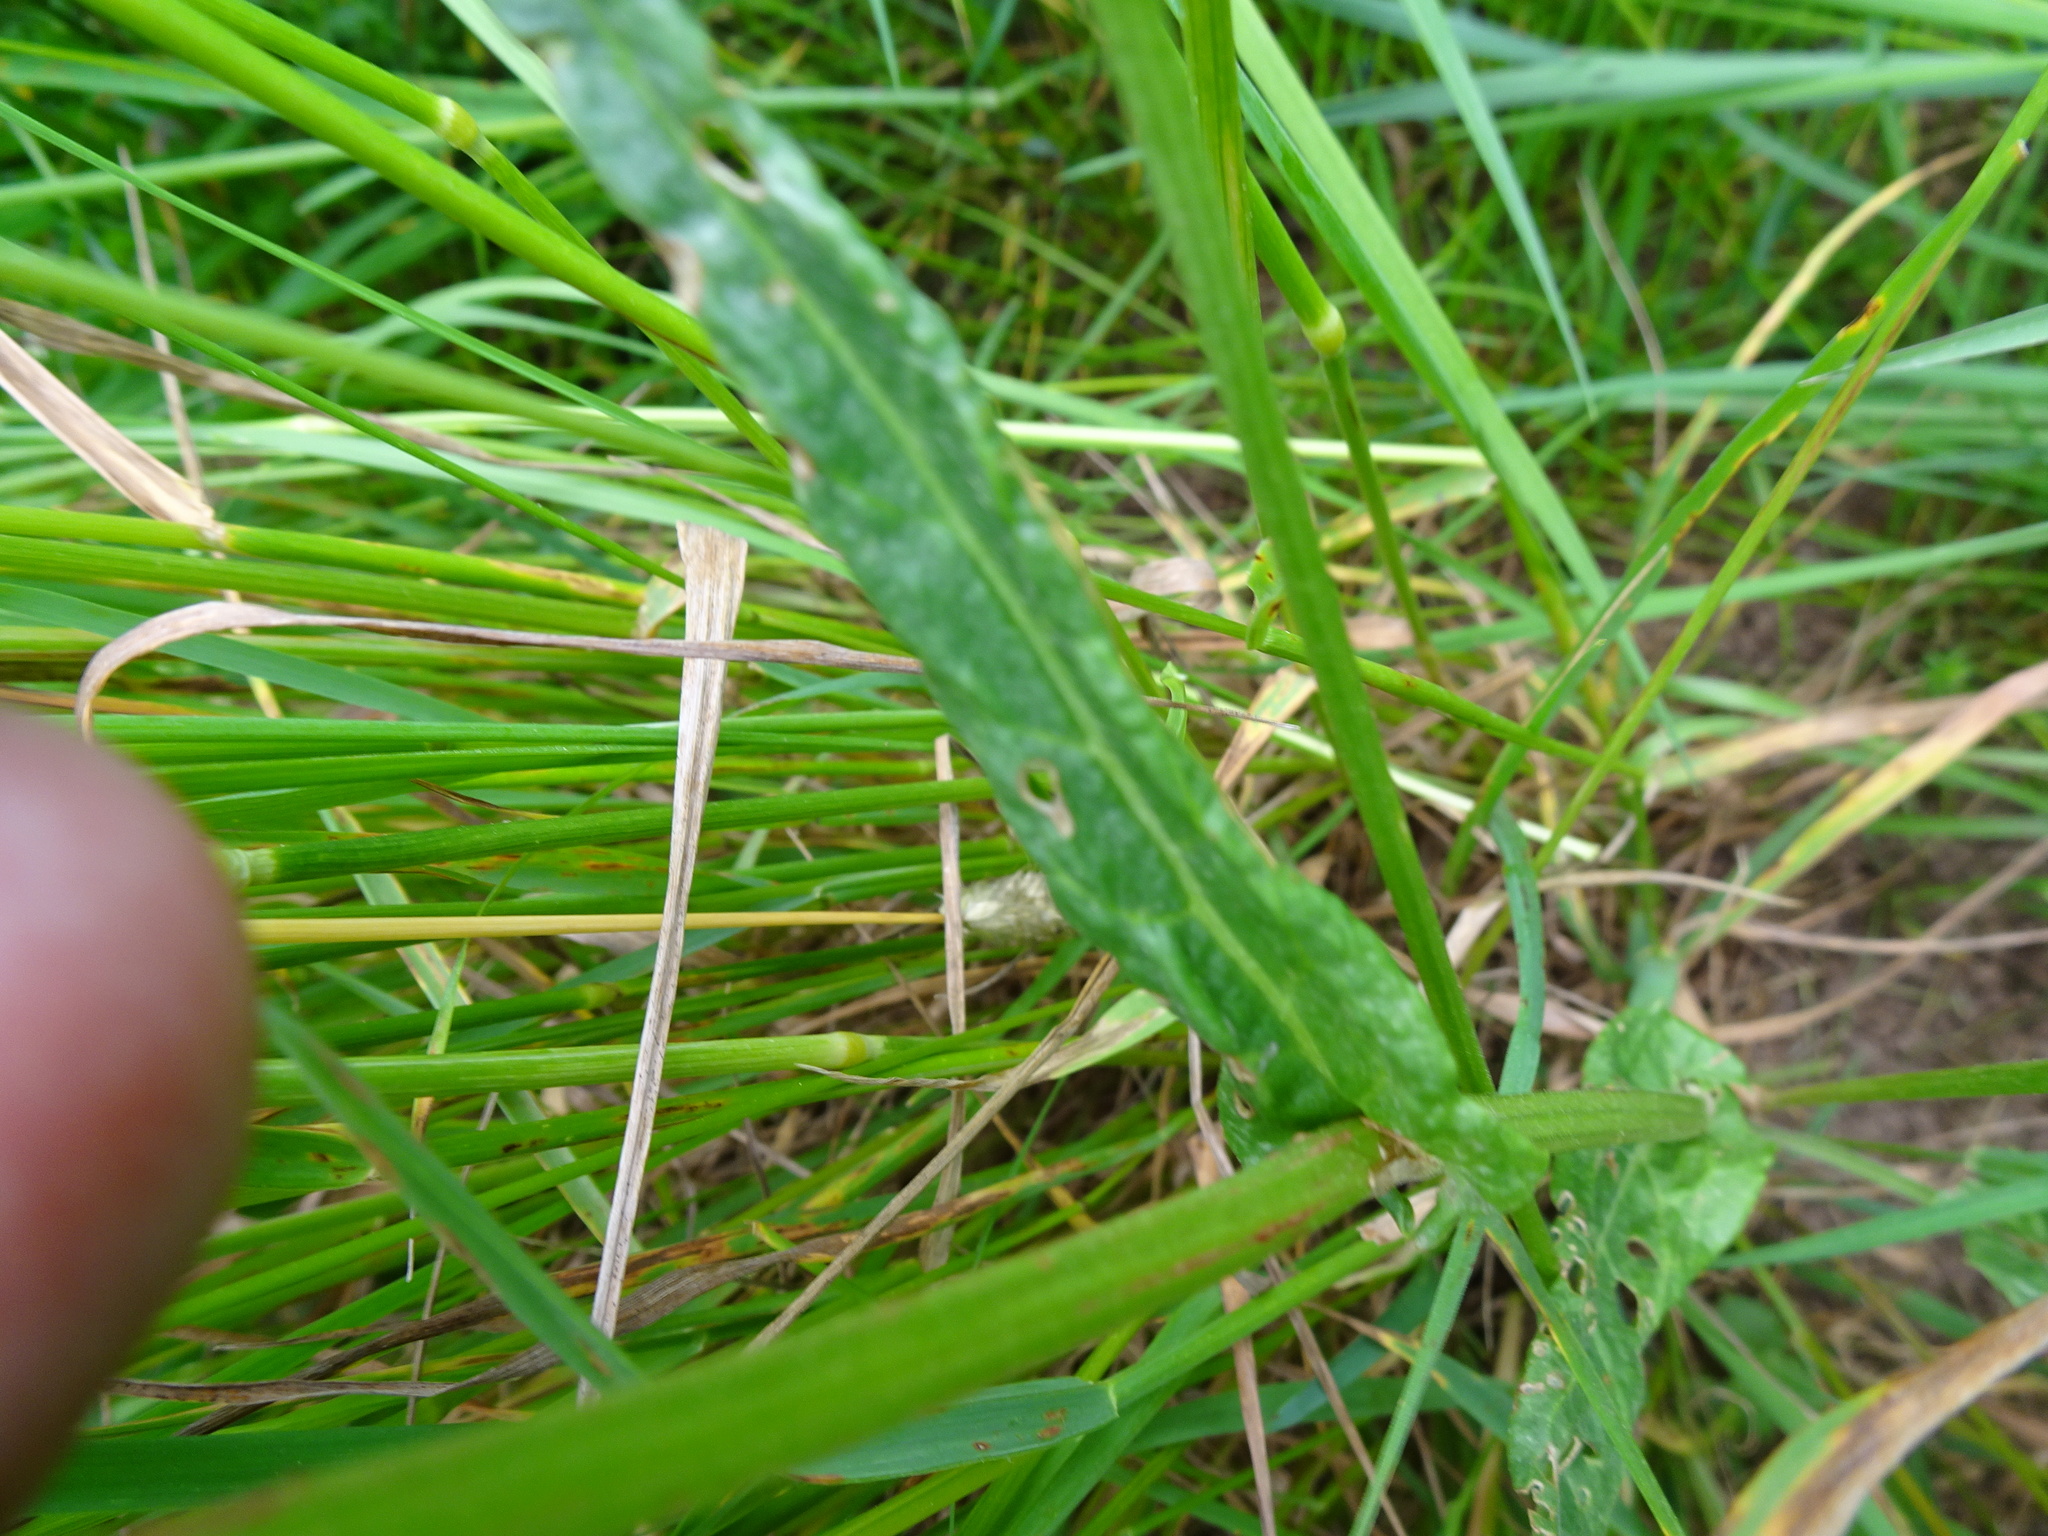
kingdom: Plantae
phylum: Tracheophyta
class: Magnoliopsida
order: Caryophyllales
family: Polygonaceae
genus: Rumex
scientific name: Rumex acetosa
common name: Garden sorrel
